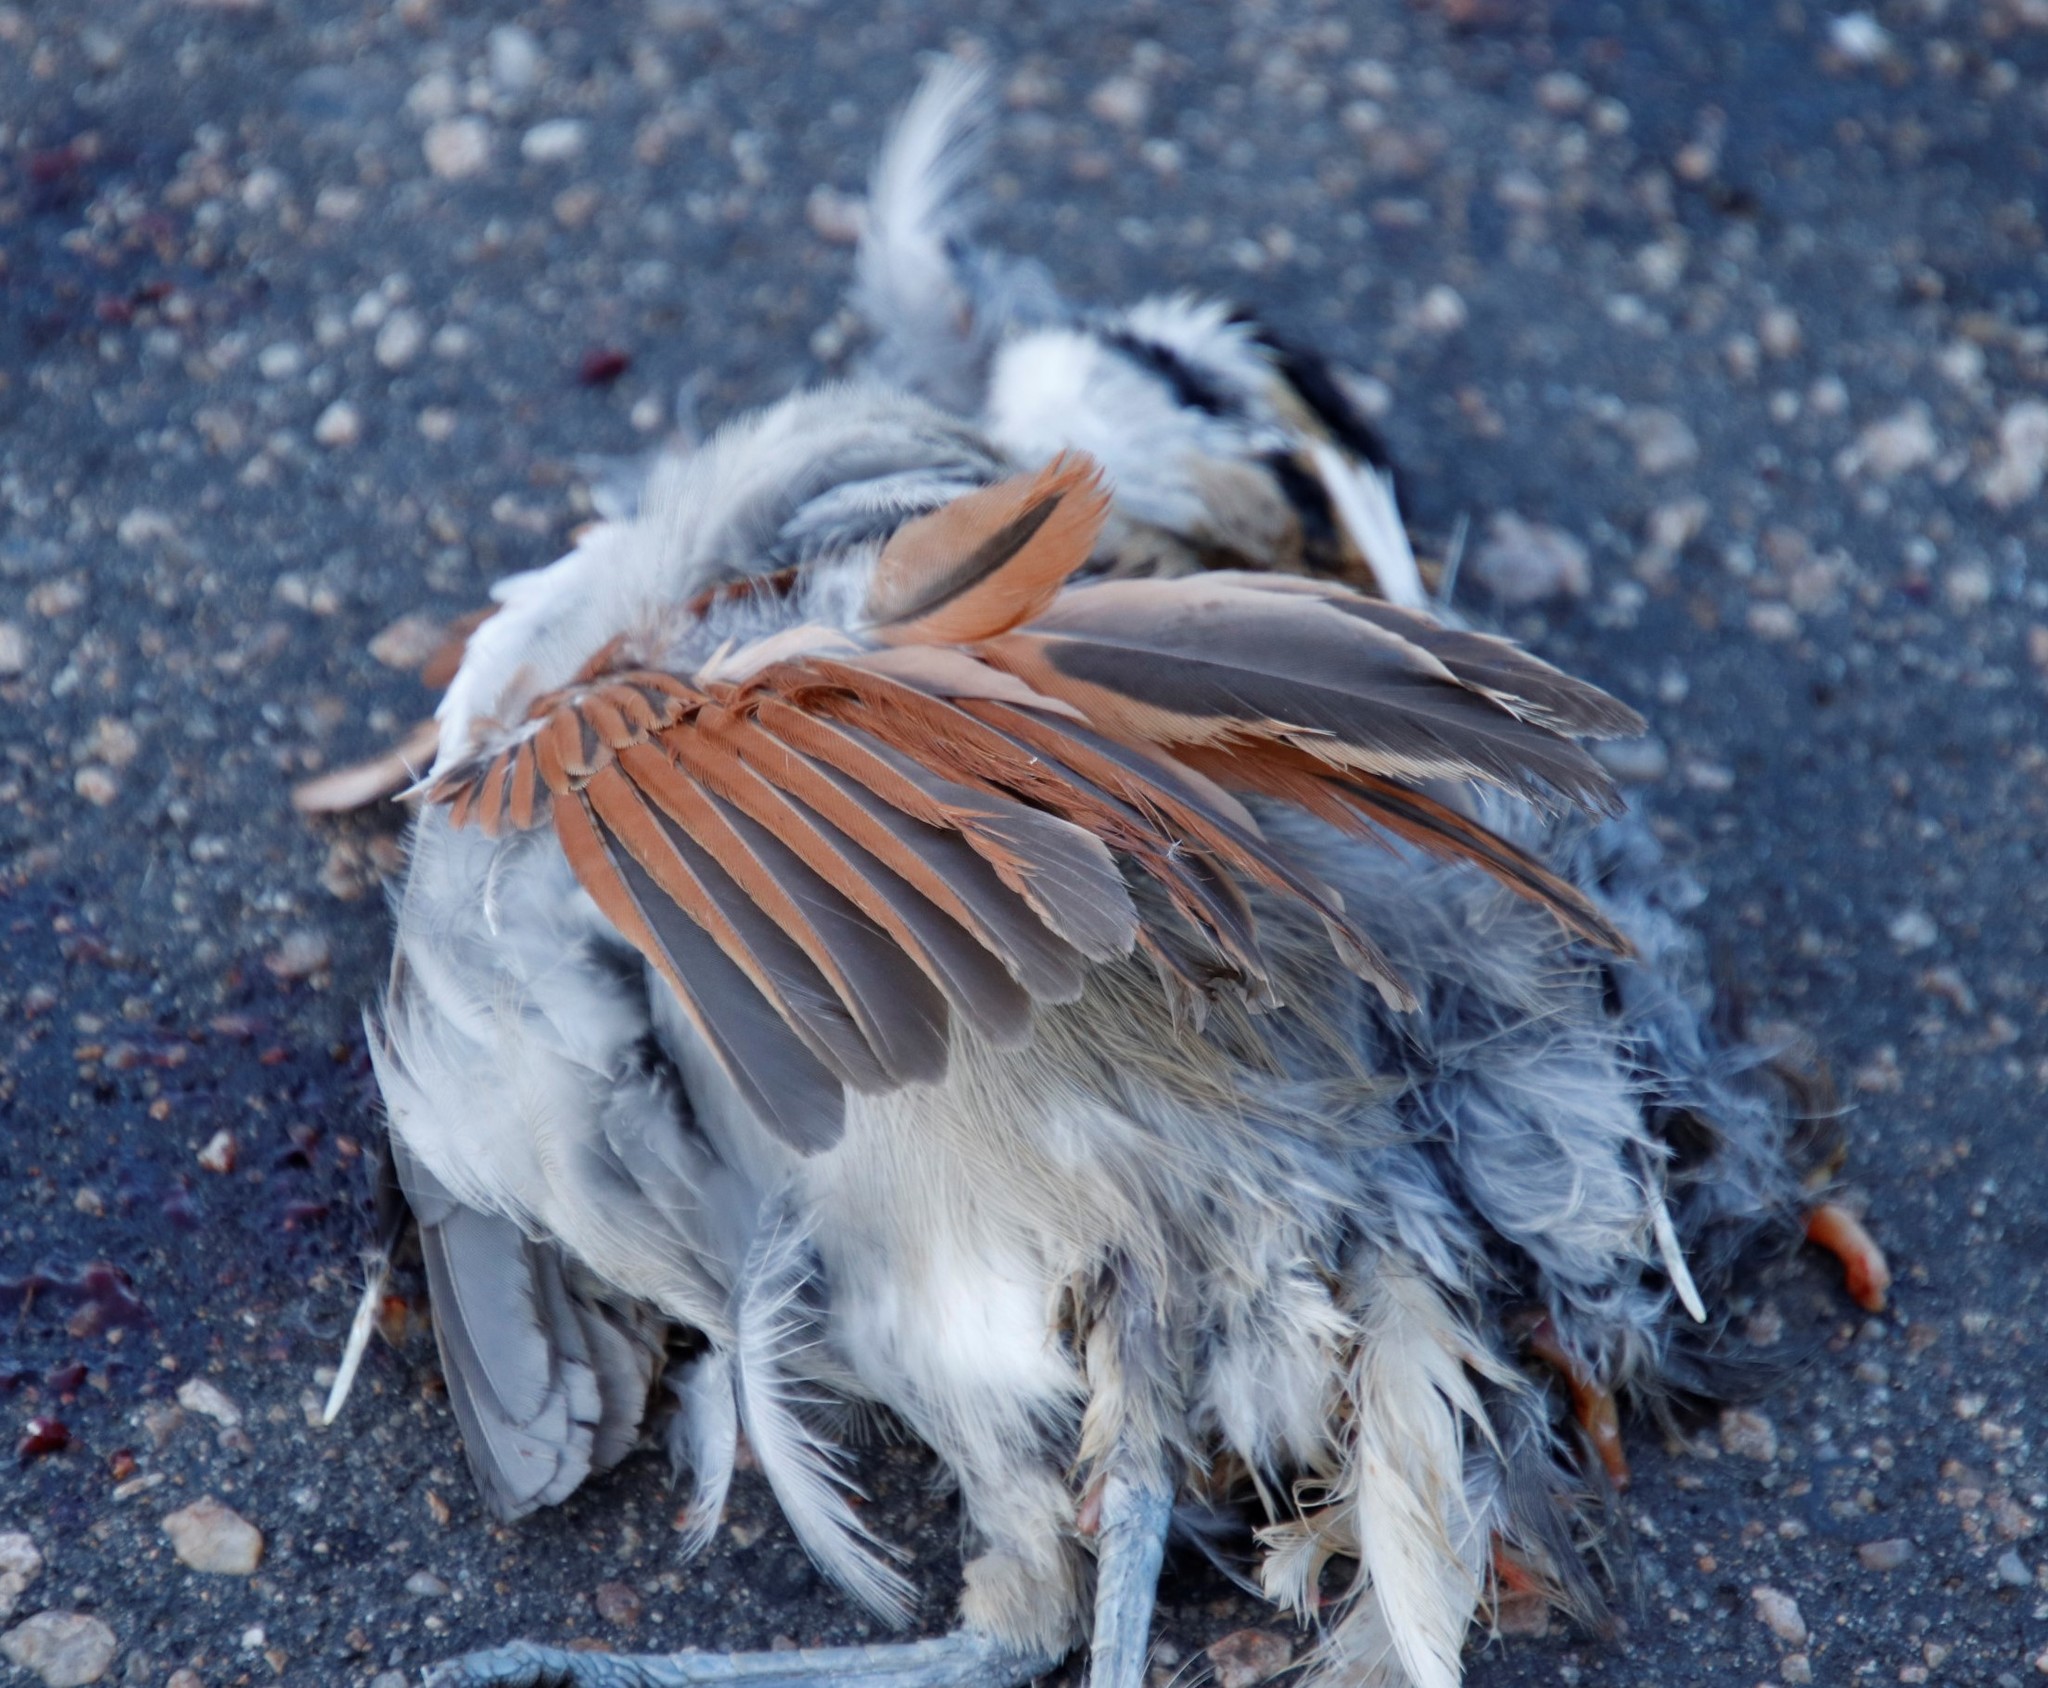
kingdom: Animalia
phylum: Chordata
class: Aves
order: Passeriformes
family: Malaconotidae
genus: Tchagra
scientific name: Tchagra australis
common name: Brown-crowned tchagra
